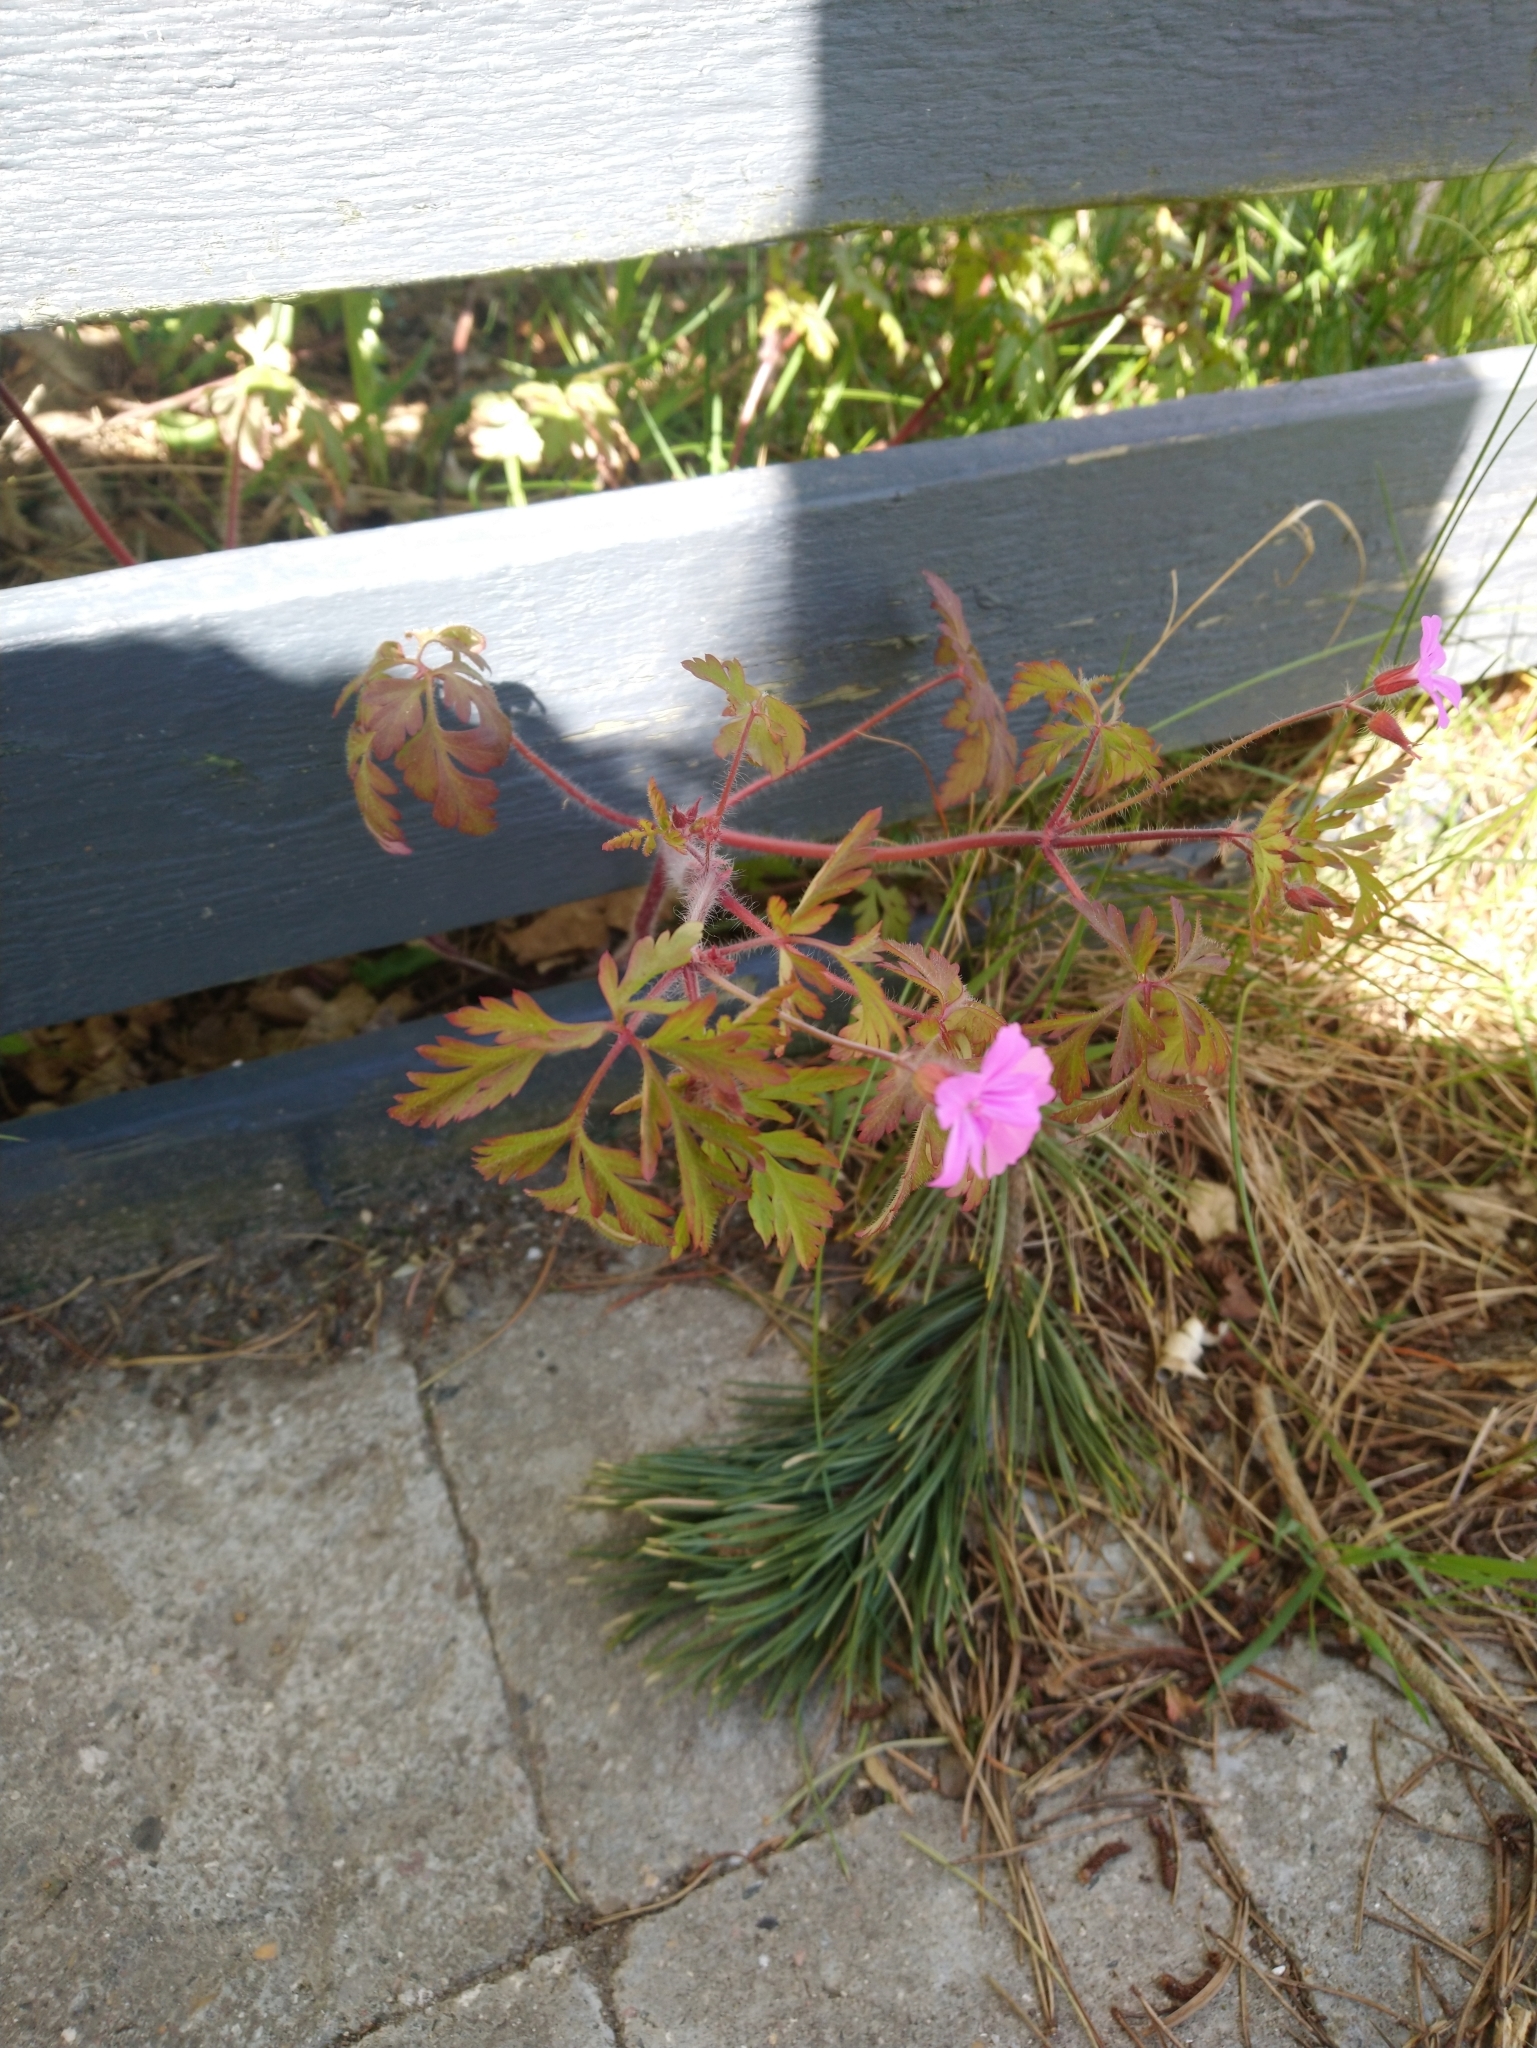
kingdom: Plantae
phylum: Tracheophyta
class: Magnoliopsida
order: Geraniales
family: Geraniaceae
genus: Geranium
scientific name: Geranium robertianum
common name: Herb-robert
